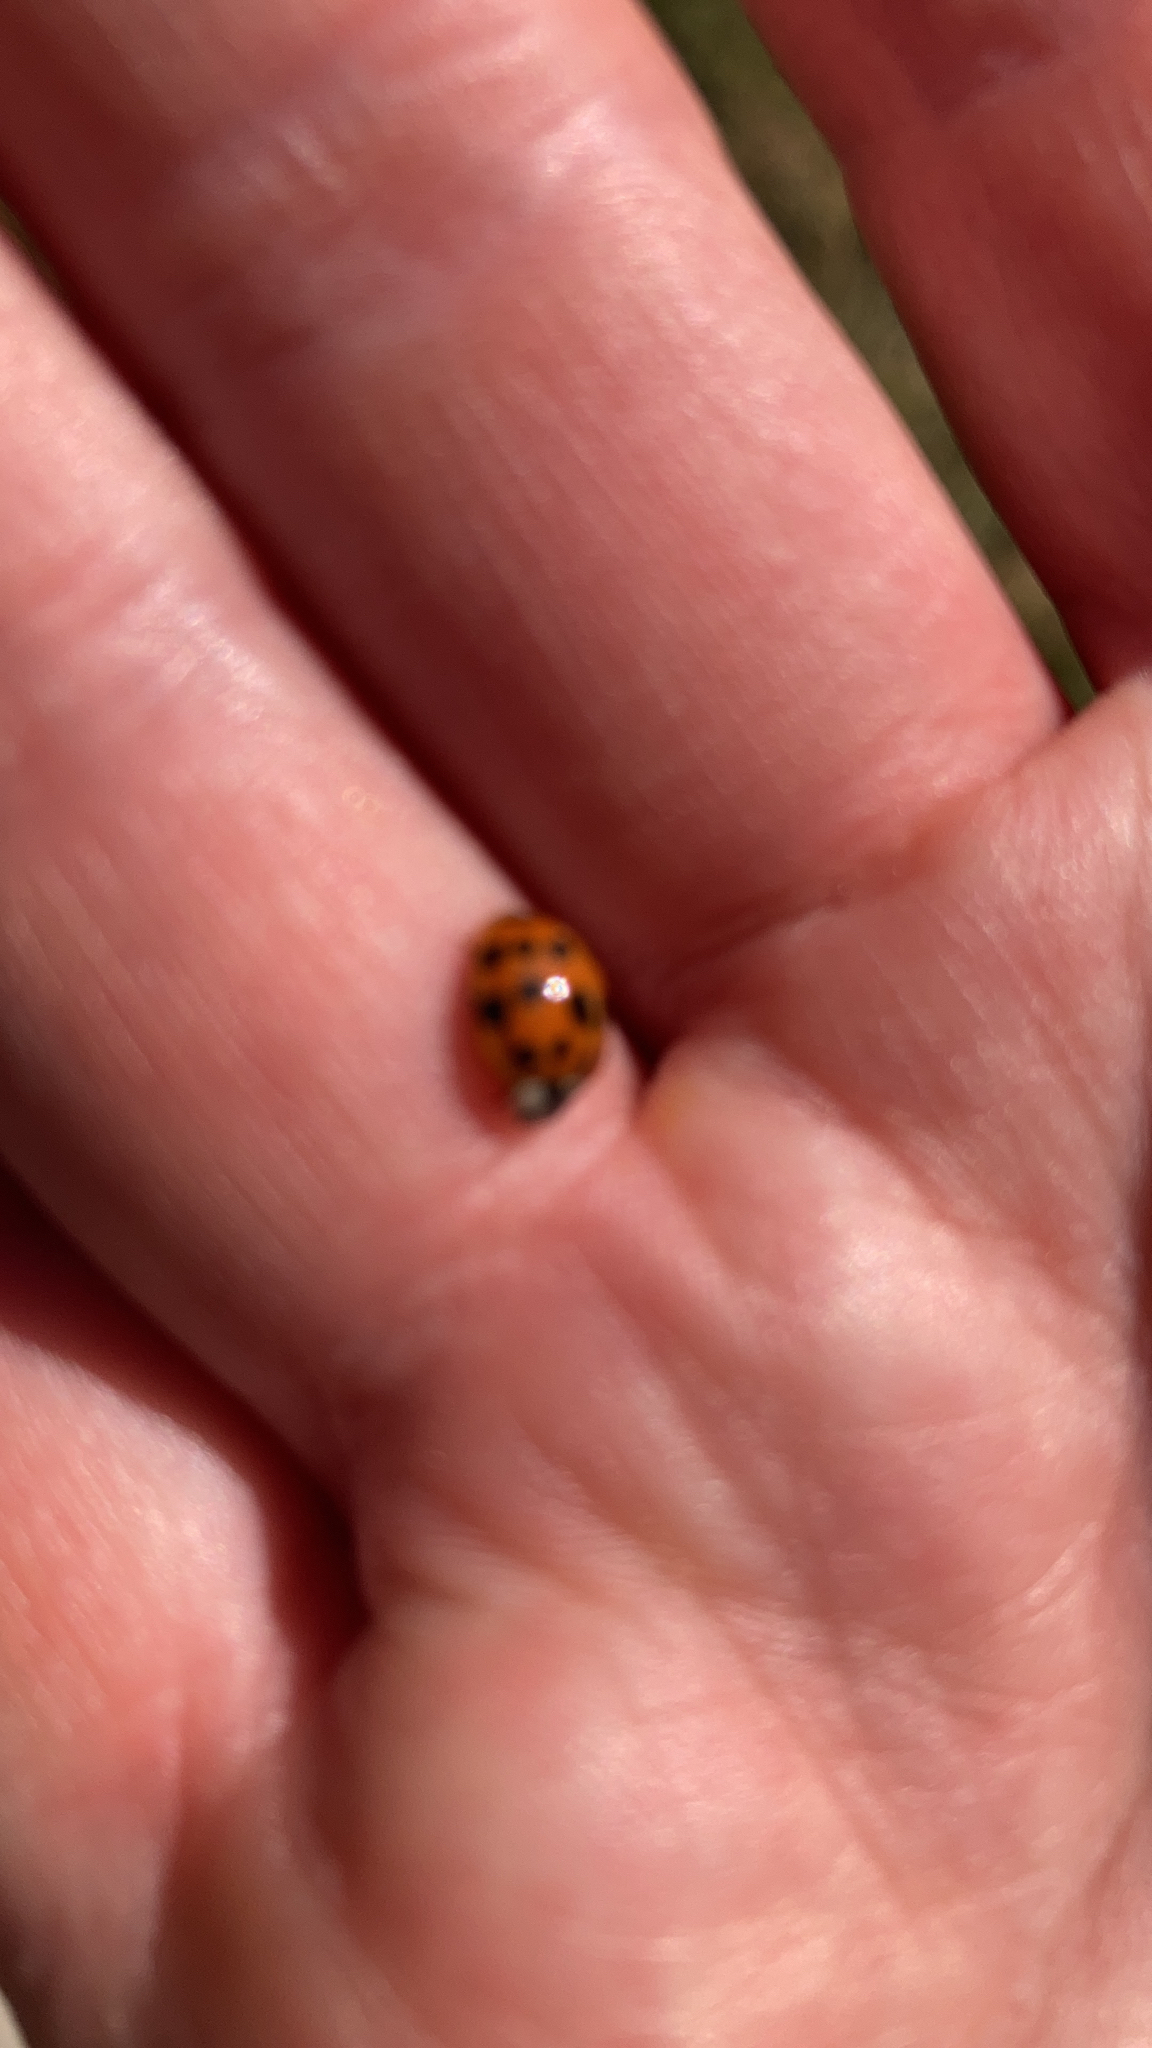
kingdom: Animalia
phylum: Arthropoda
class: Insecta
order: Coleoptera
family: Coccinellidae
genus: Harmonia
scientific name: Harmonia axyridis
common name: Harlequin ladybird
